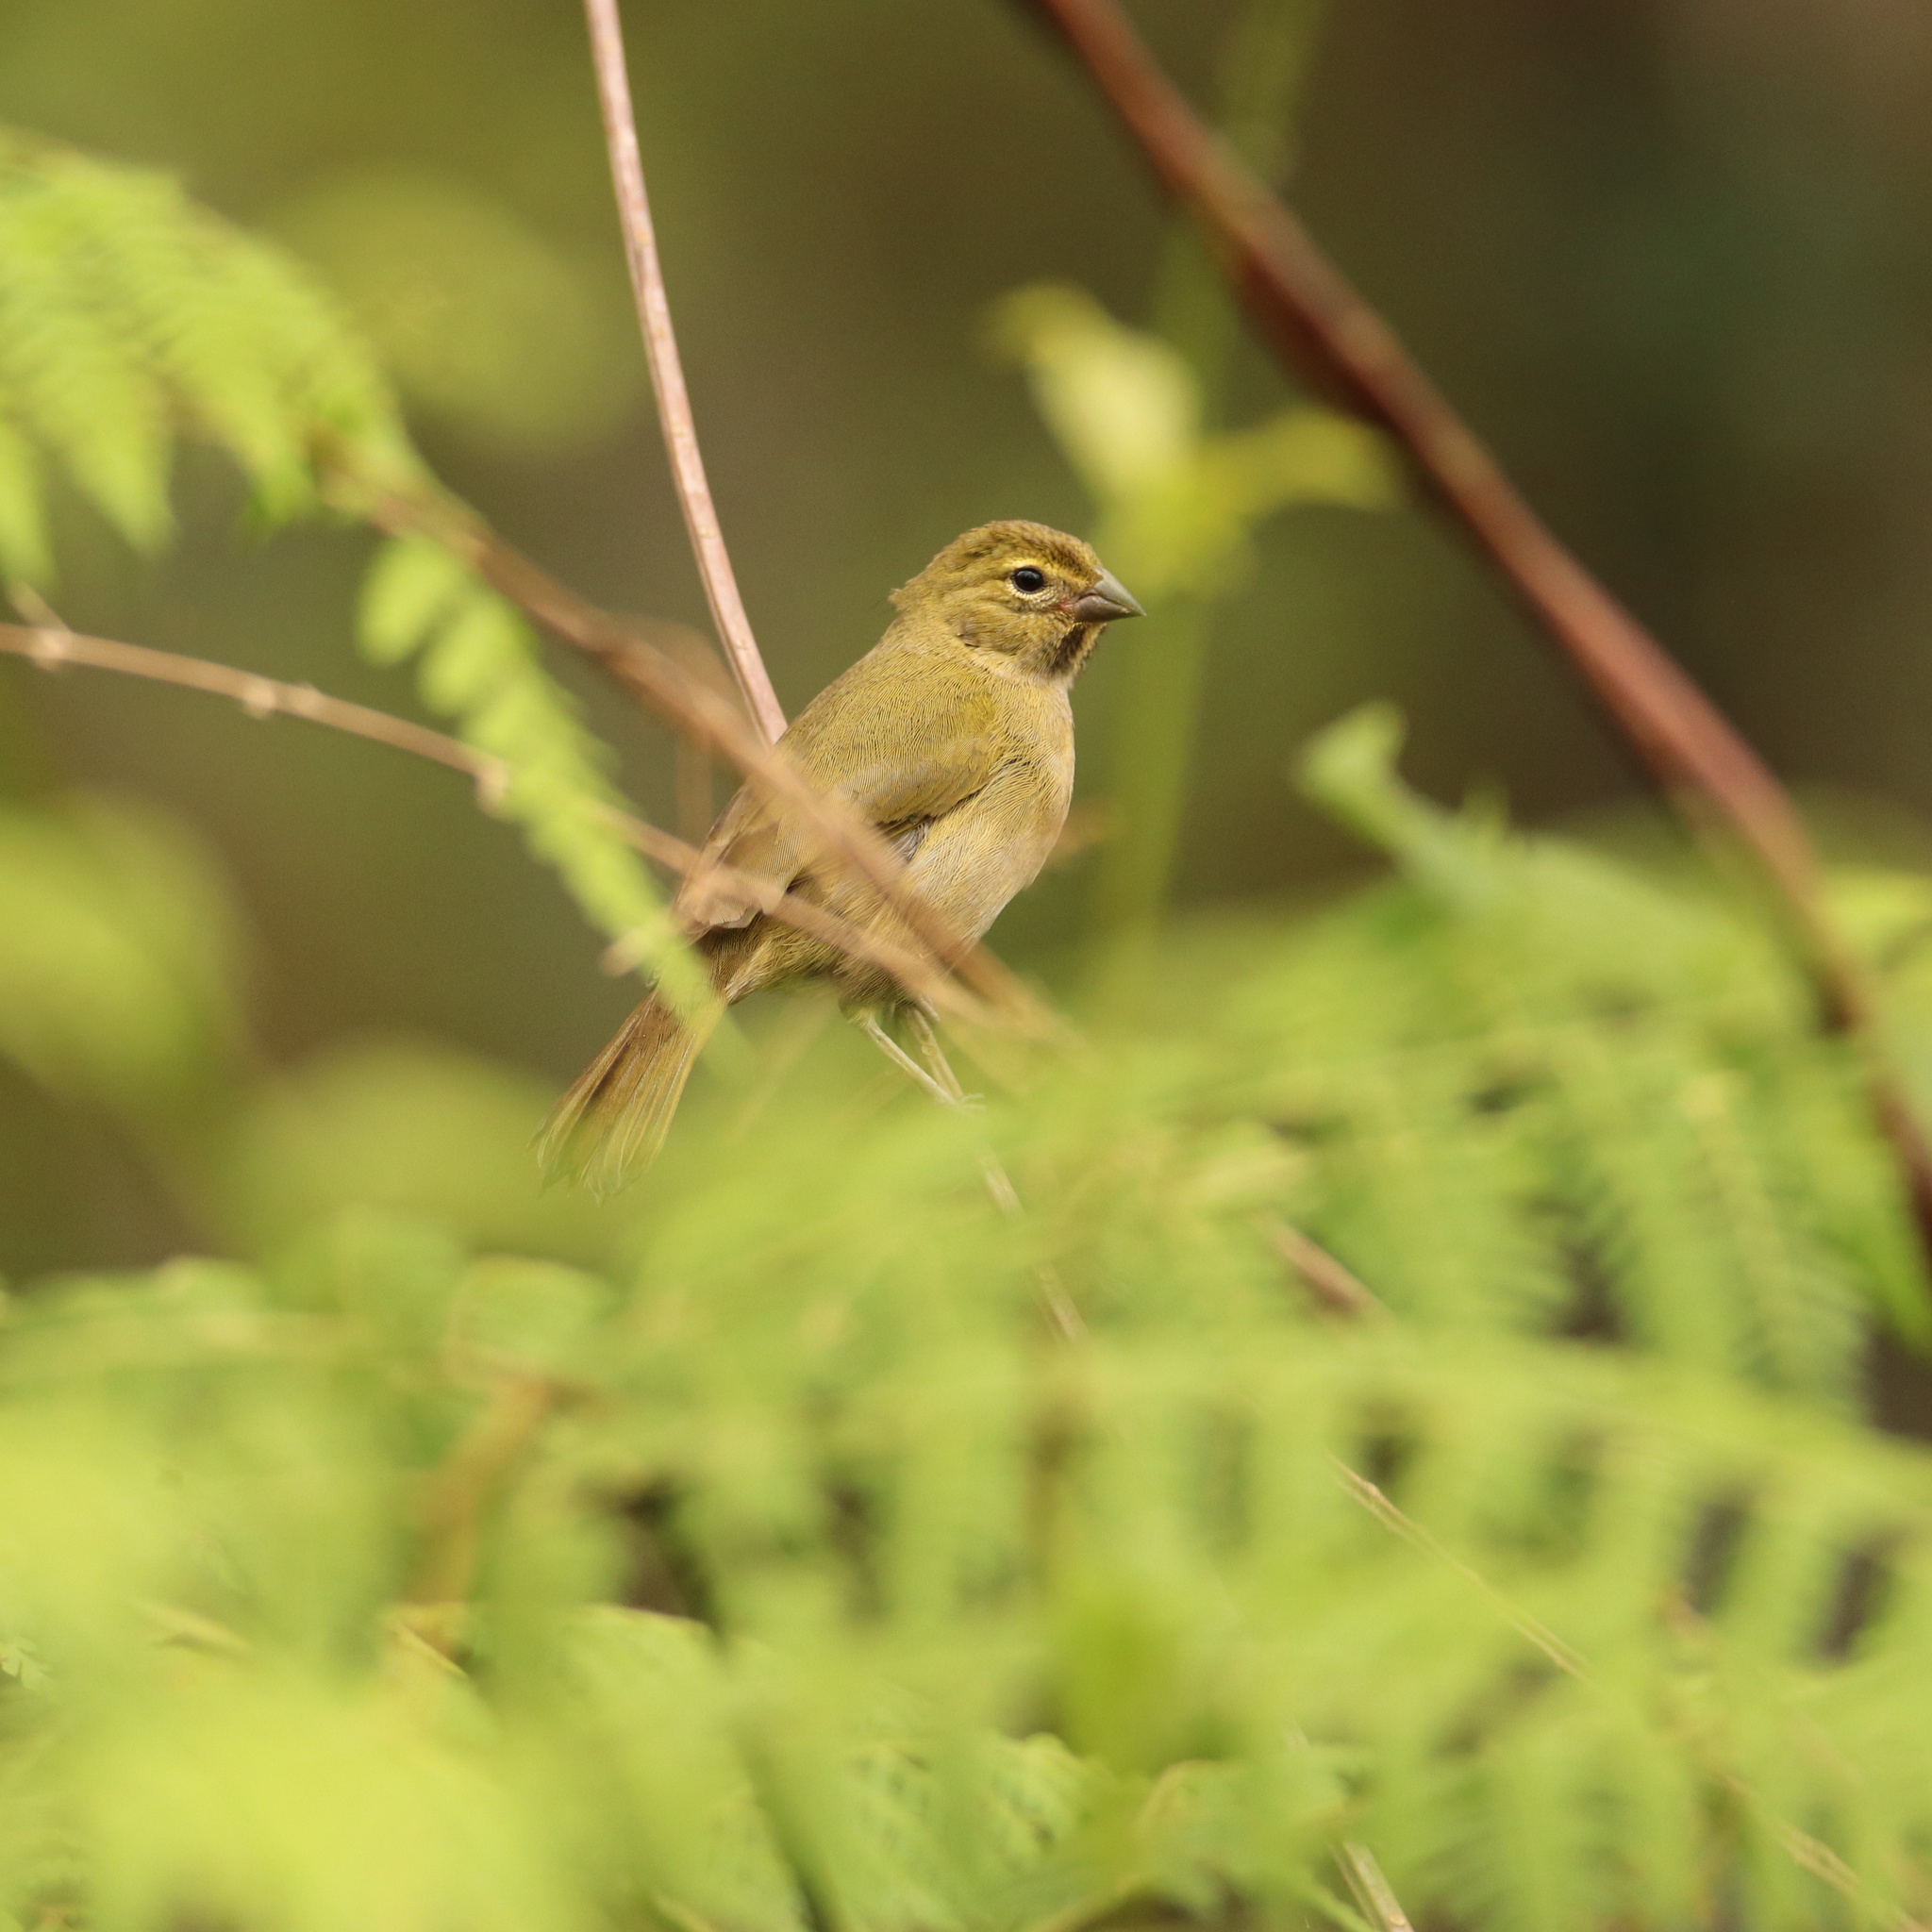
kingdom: Animalia
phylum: Chordata
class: Aves
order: Passeriformes
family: Thraupidae
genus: Tiaris
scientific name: Tiaris olivaceus
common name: Yellow-faced grassquit
